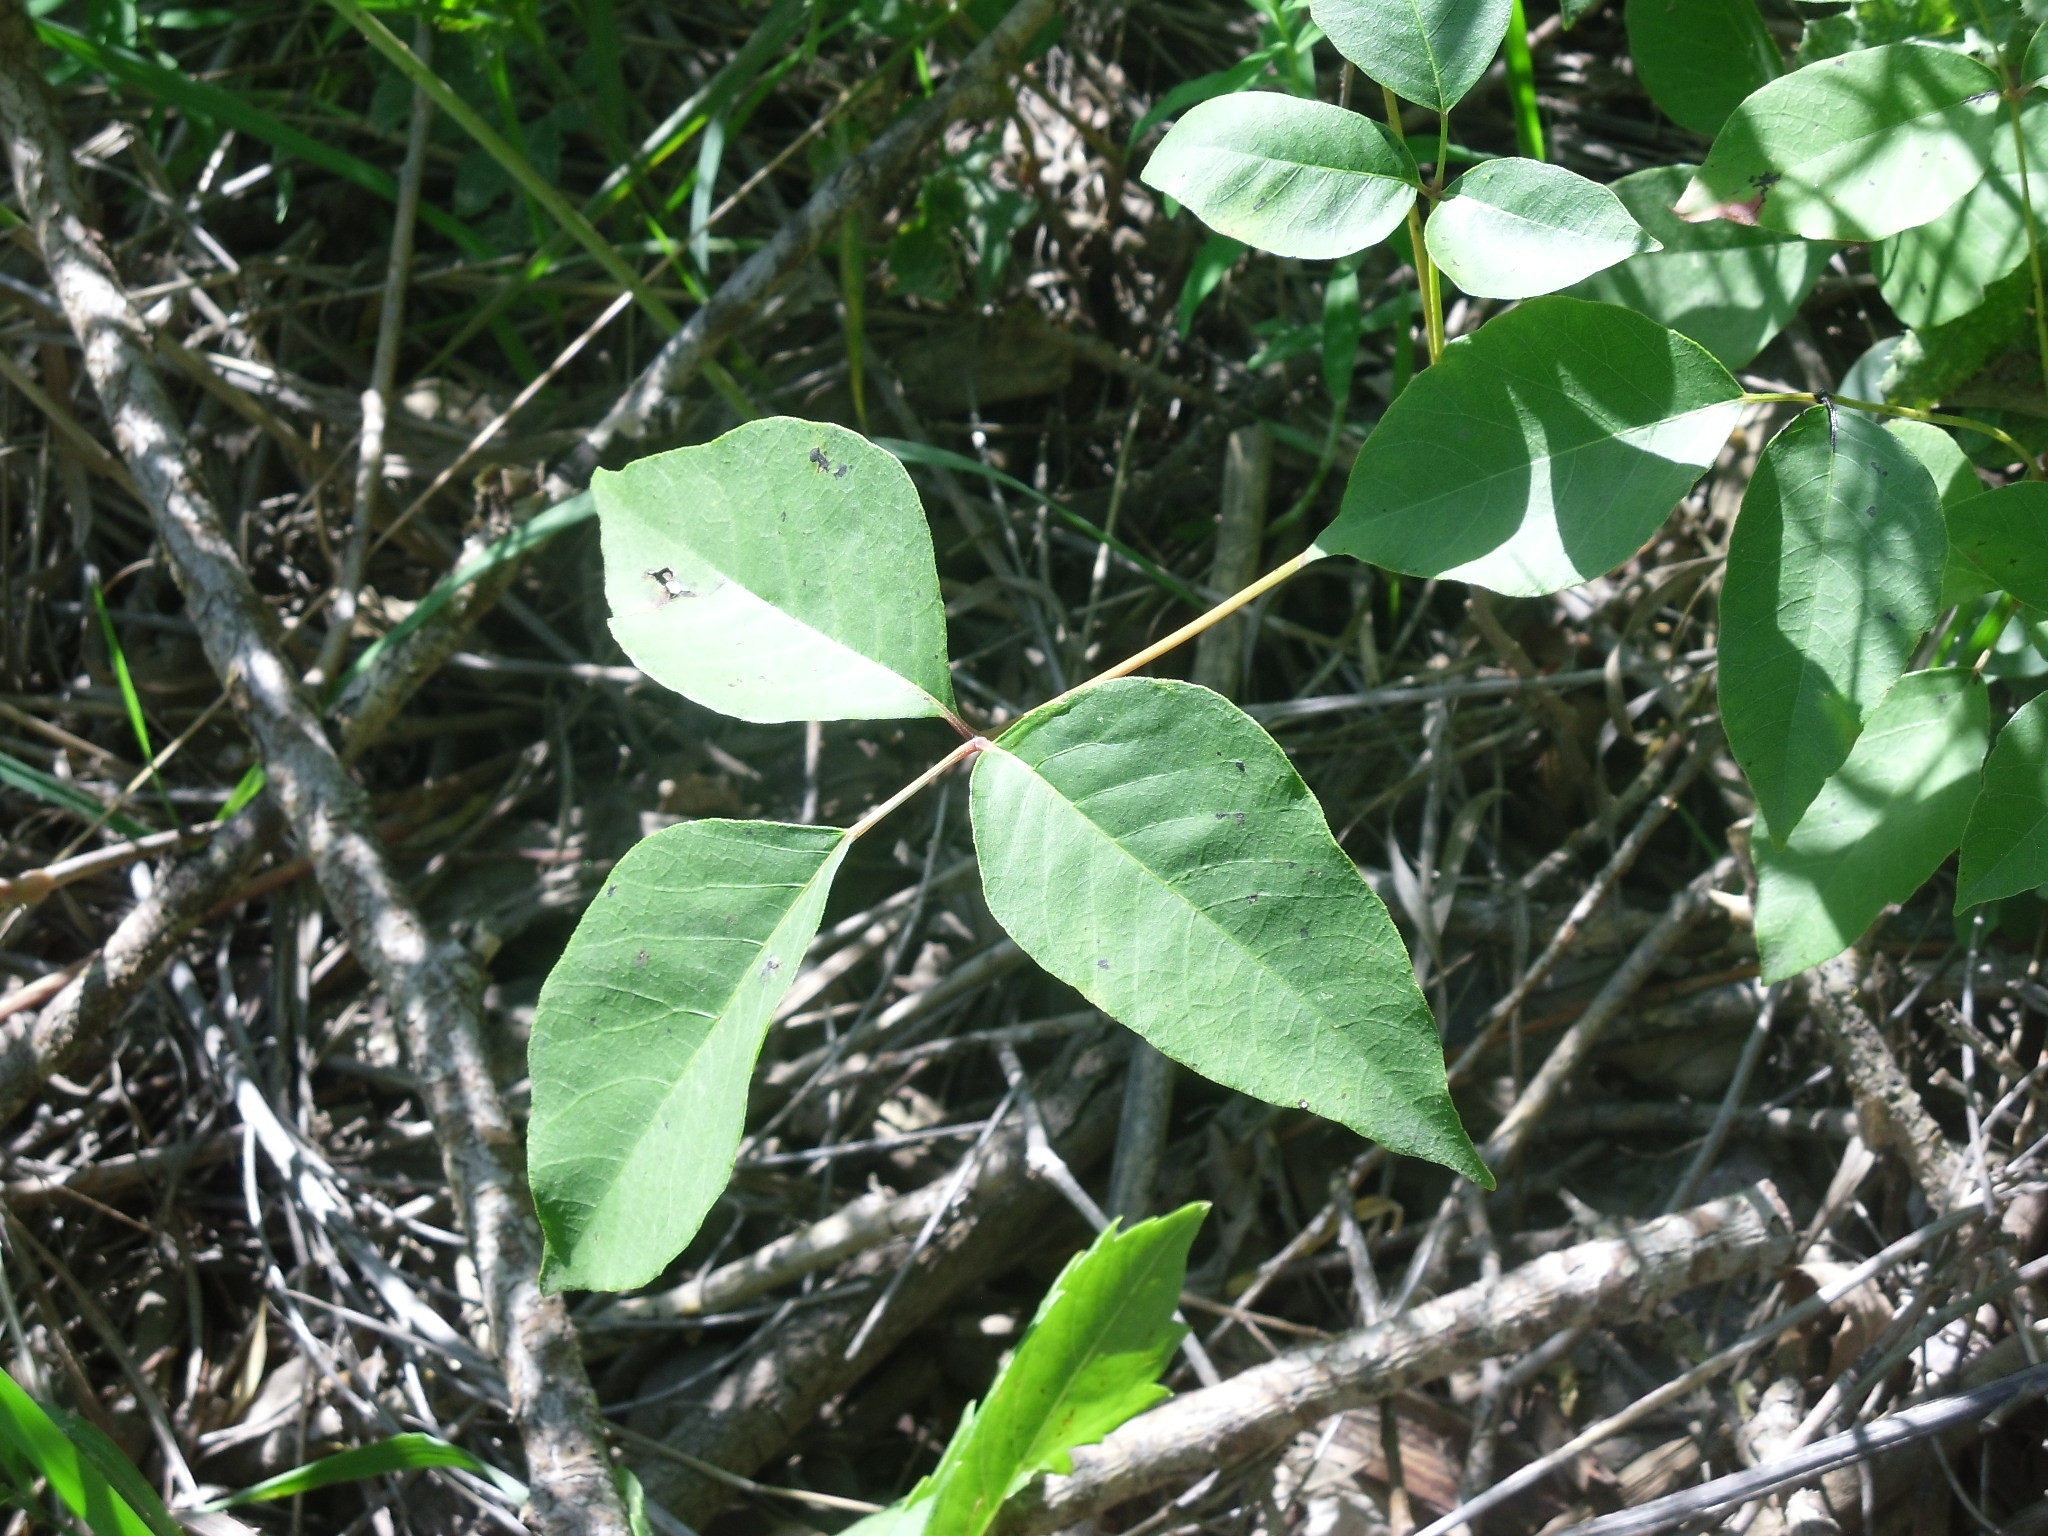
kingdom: Plantae
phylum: Tracheophyta
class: Magnoliopsida
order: Sapindales
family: Anacardiaceae
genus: Toxicodendron
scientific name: Toxicodendron rydbergii
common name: Rydberg's poison-ivy
